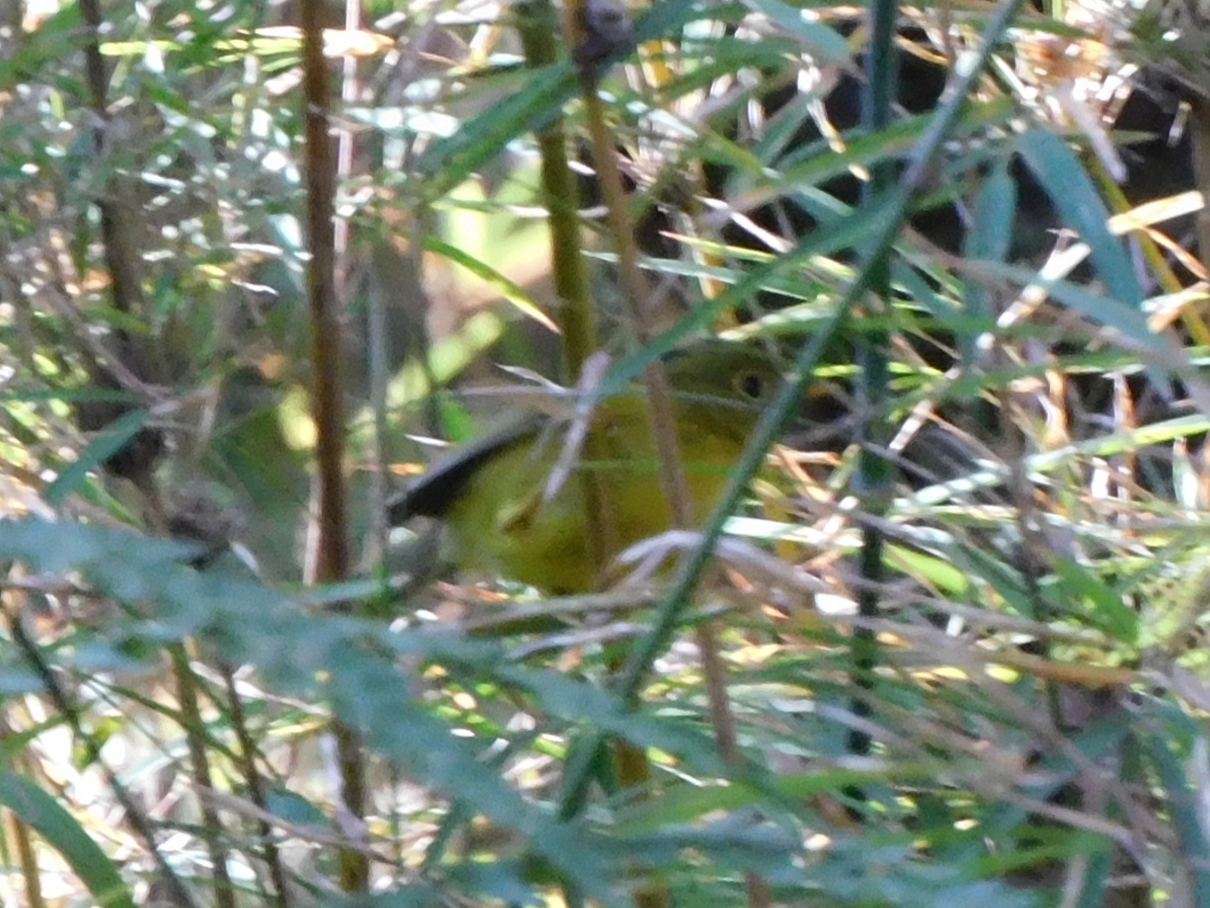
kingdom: Animalia
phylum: Chordata
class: Aves
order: Passeriformes
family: Phylloscopidae
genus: Seicercus
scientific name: Seicercus whistleri
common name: Whistler's warbler
